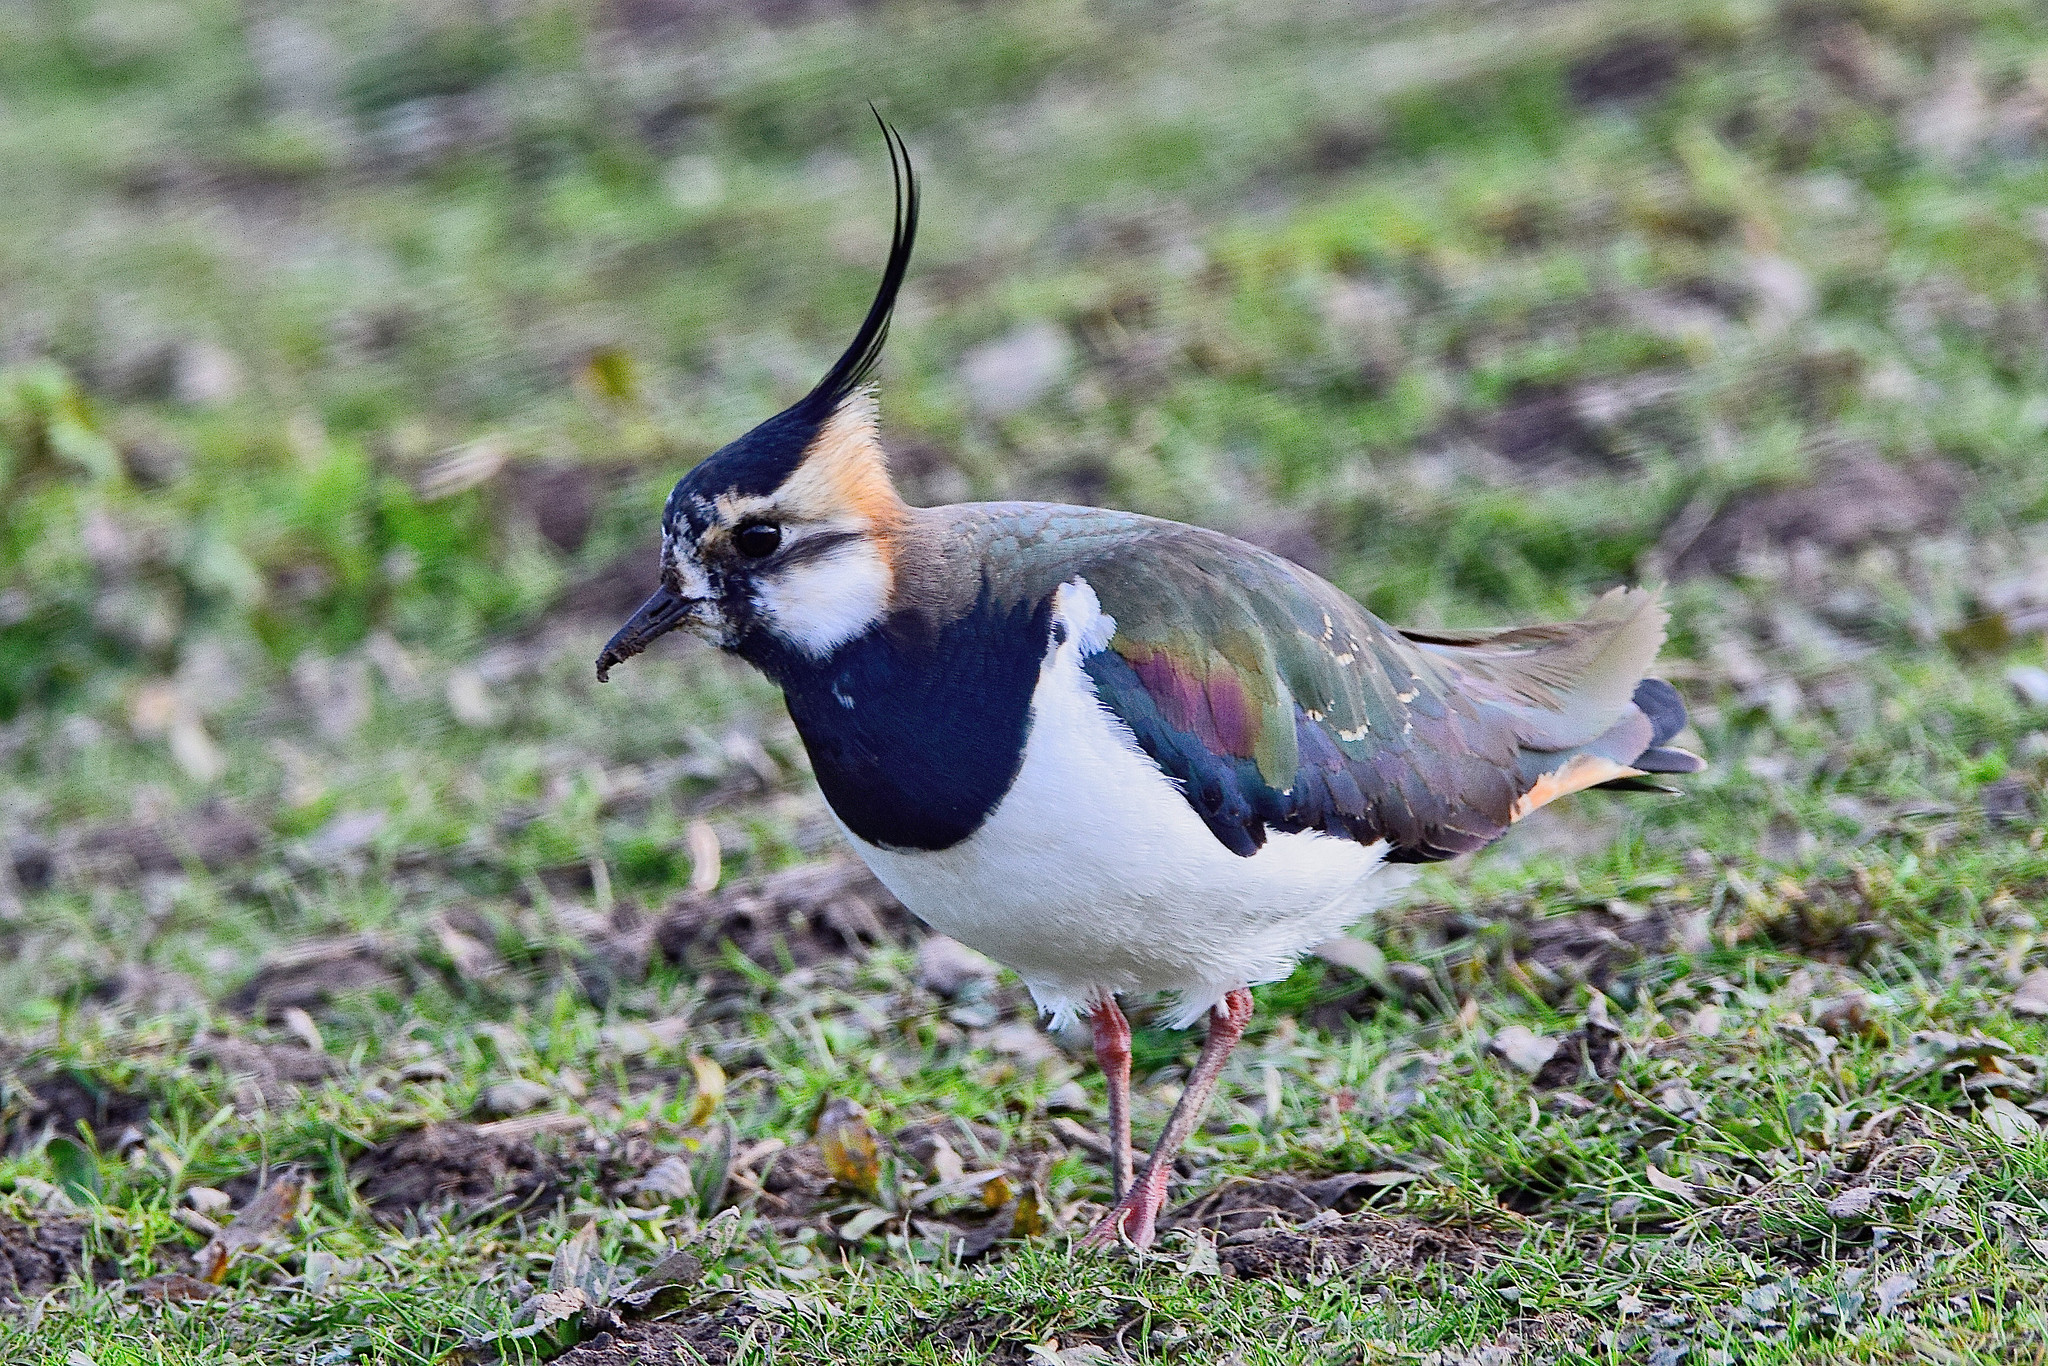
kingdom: Animalia
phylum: Chordata
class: Aves
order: Charadriiformes
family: Charadriidae
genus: Vanellus
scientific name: Vanellus vanellus
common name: Northern lapwing
